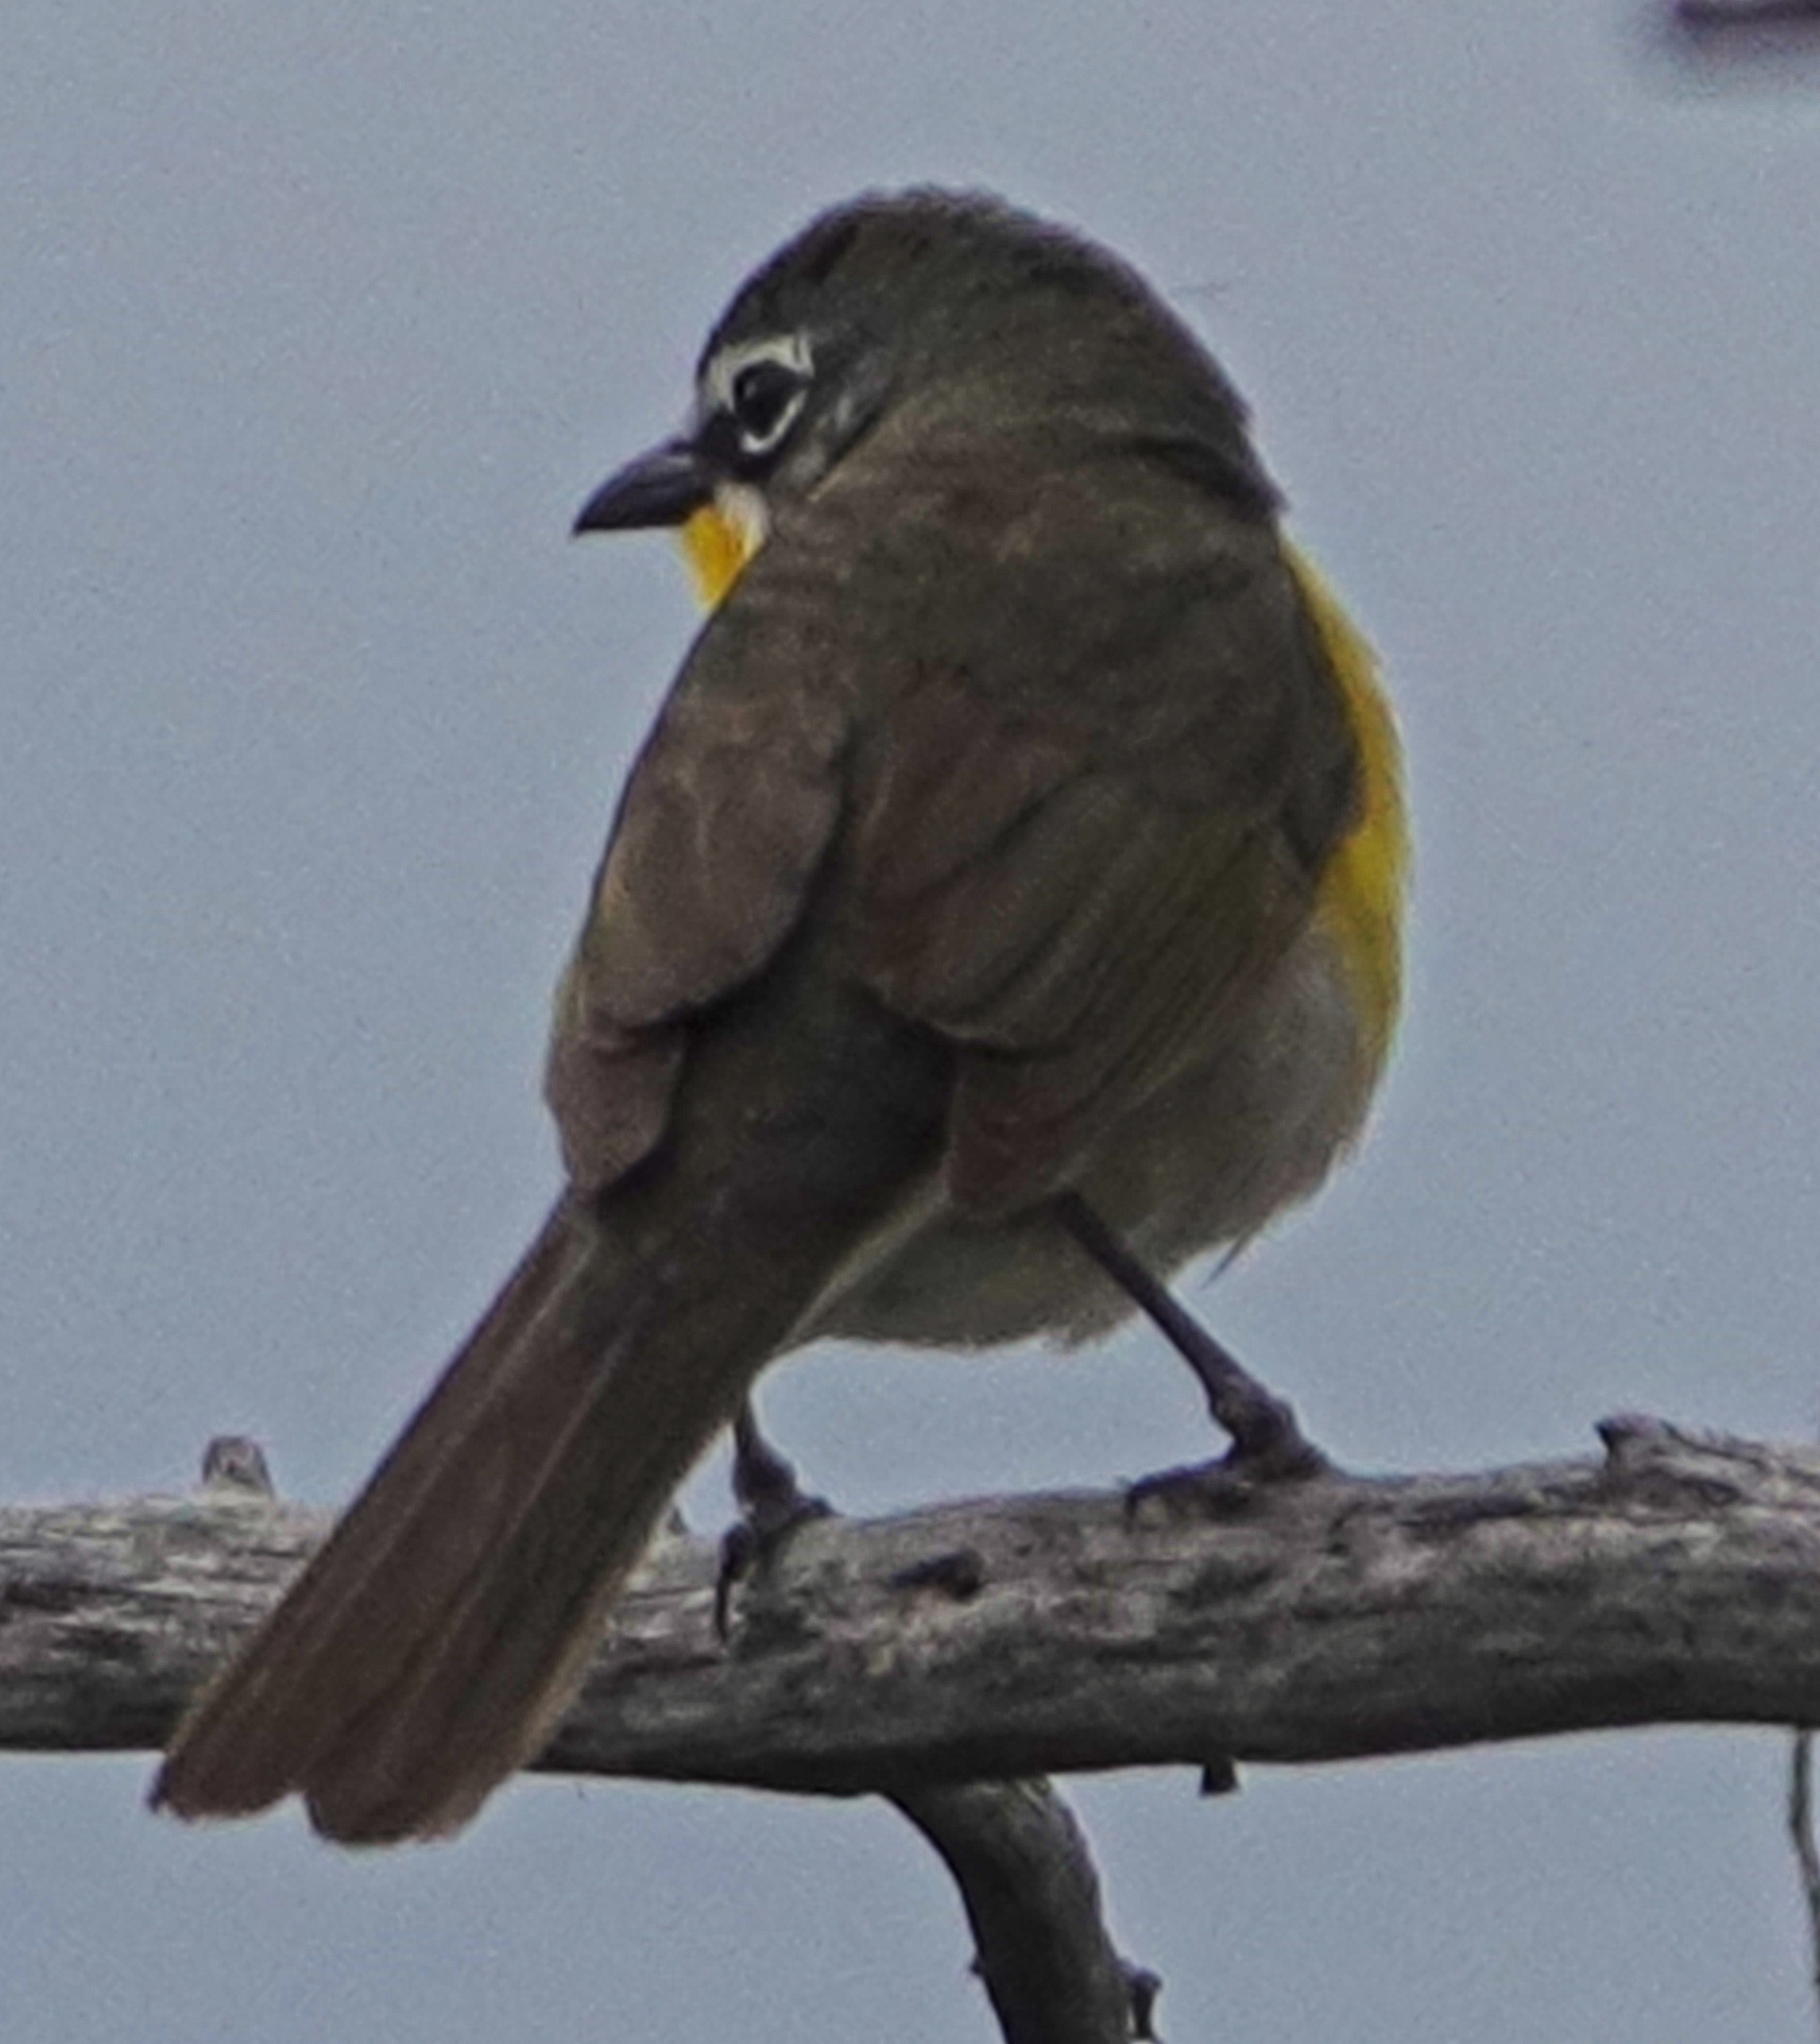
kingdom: Animalia
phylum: Chordata
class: Aves
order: Passeriformes
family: Parulidae
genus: Icteria
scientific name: Icteria virens
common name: Yellow-breasted chat
